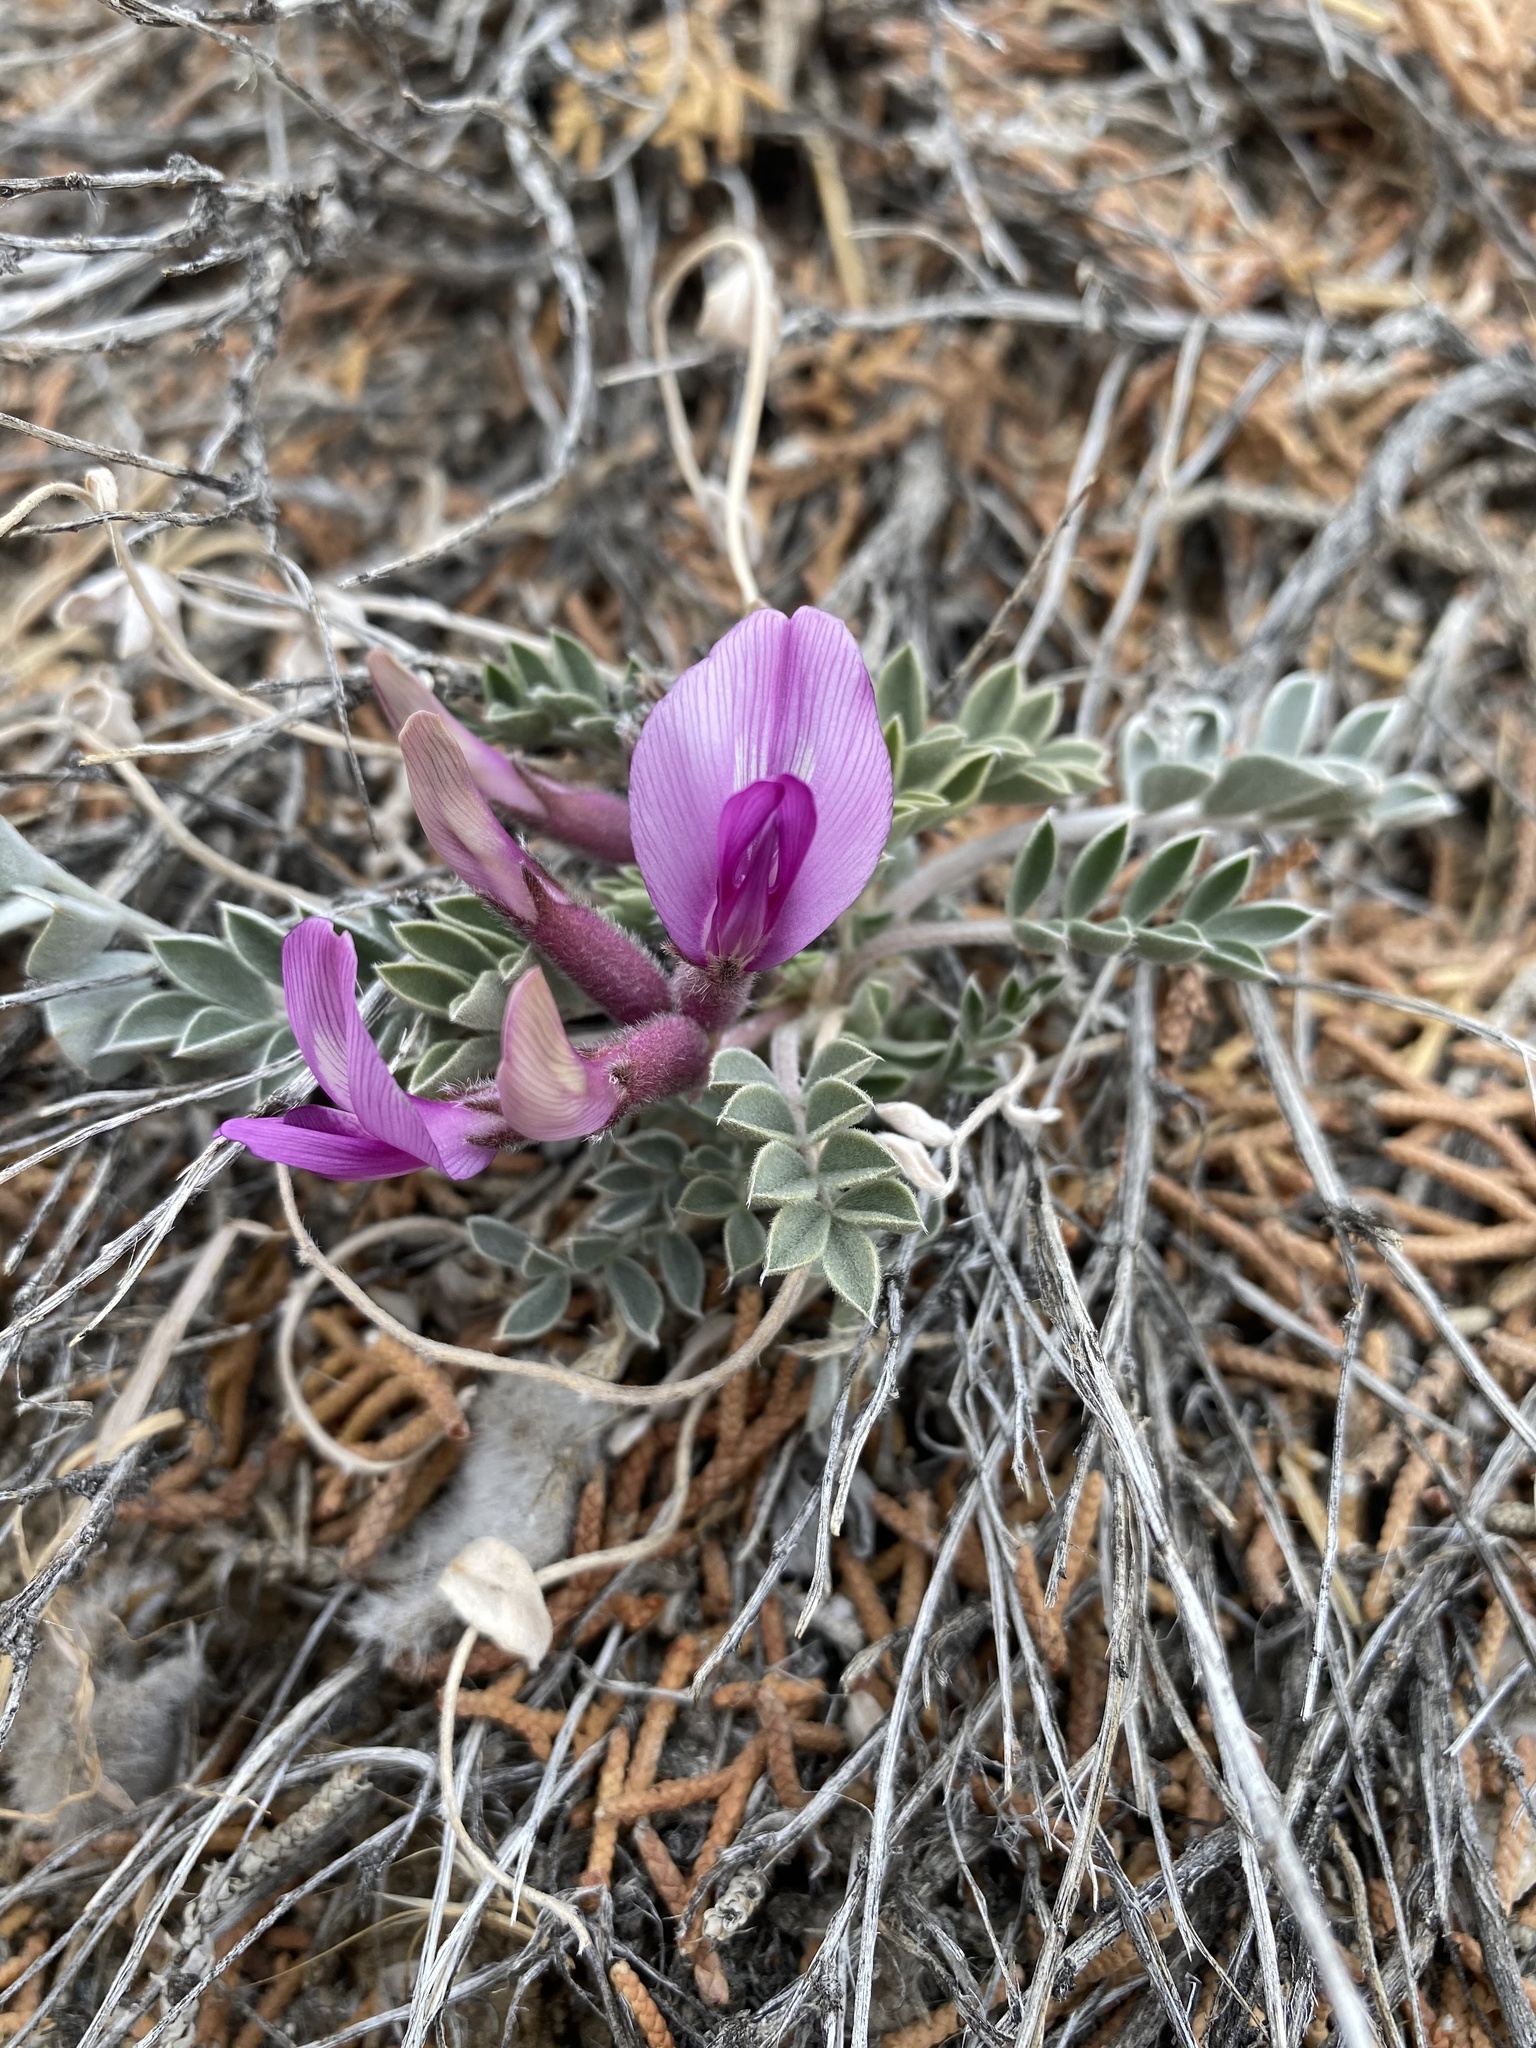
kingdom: Plantae
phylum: Tracheophyta
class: Magnoliopsida
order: Fabales
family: Fabaceae
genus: Astragalus
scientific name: Astragalus newberryi
